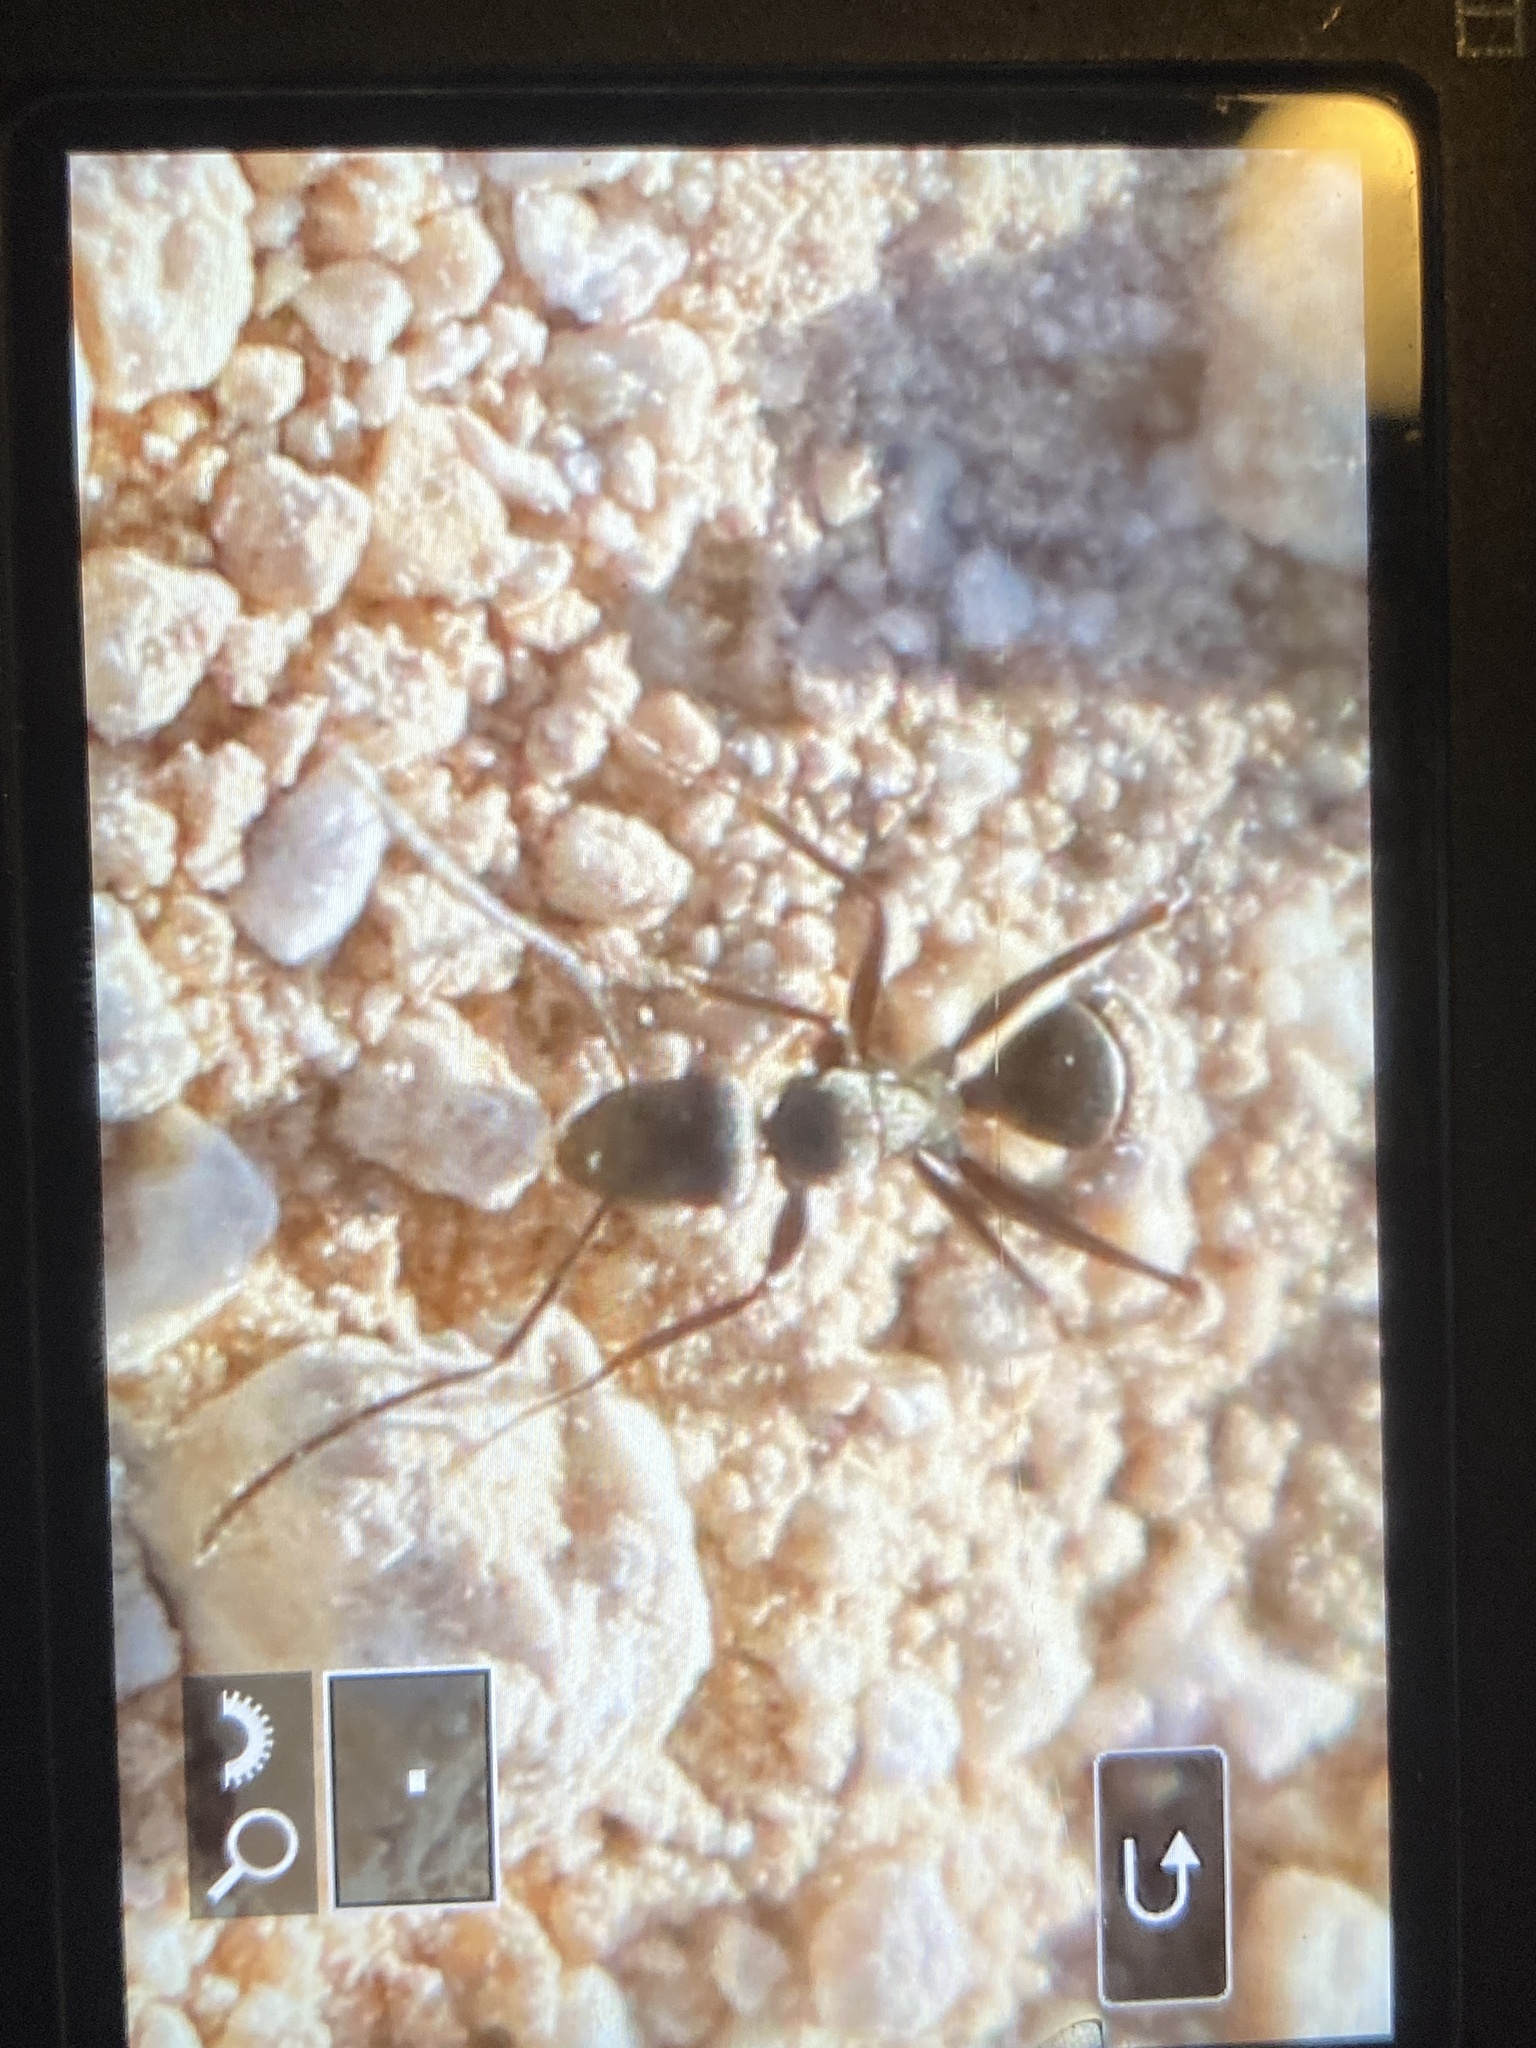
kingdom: Animalia
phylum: Arthropoda
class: Insecta
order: Hymenoptera
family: Formicidae
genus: Camponotus
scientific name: Camponotus micans
